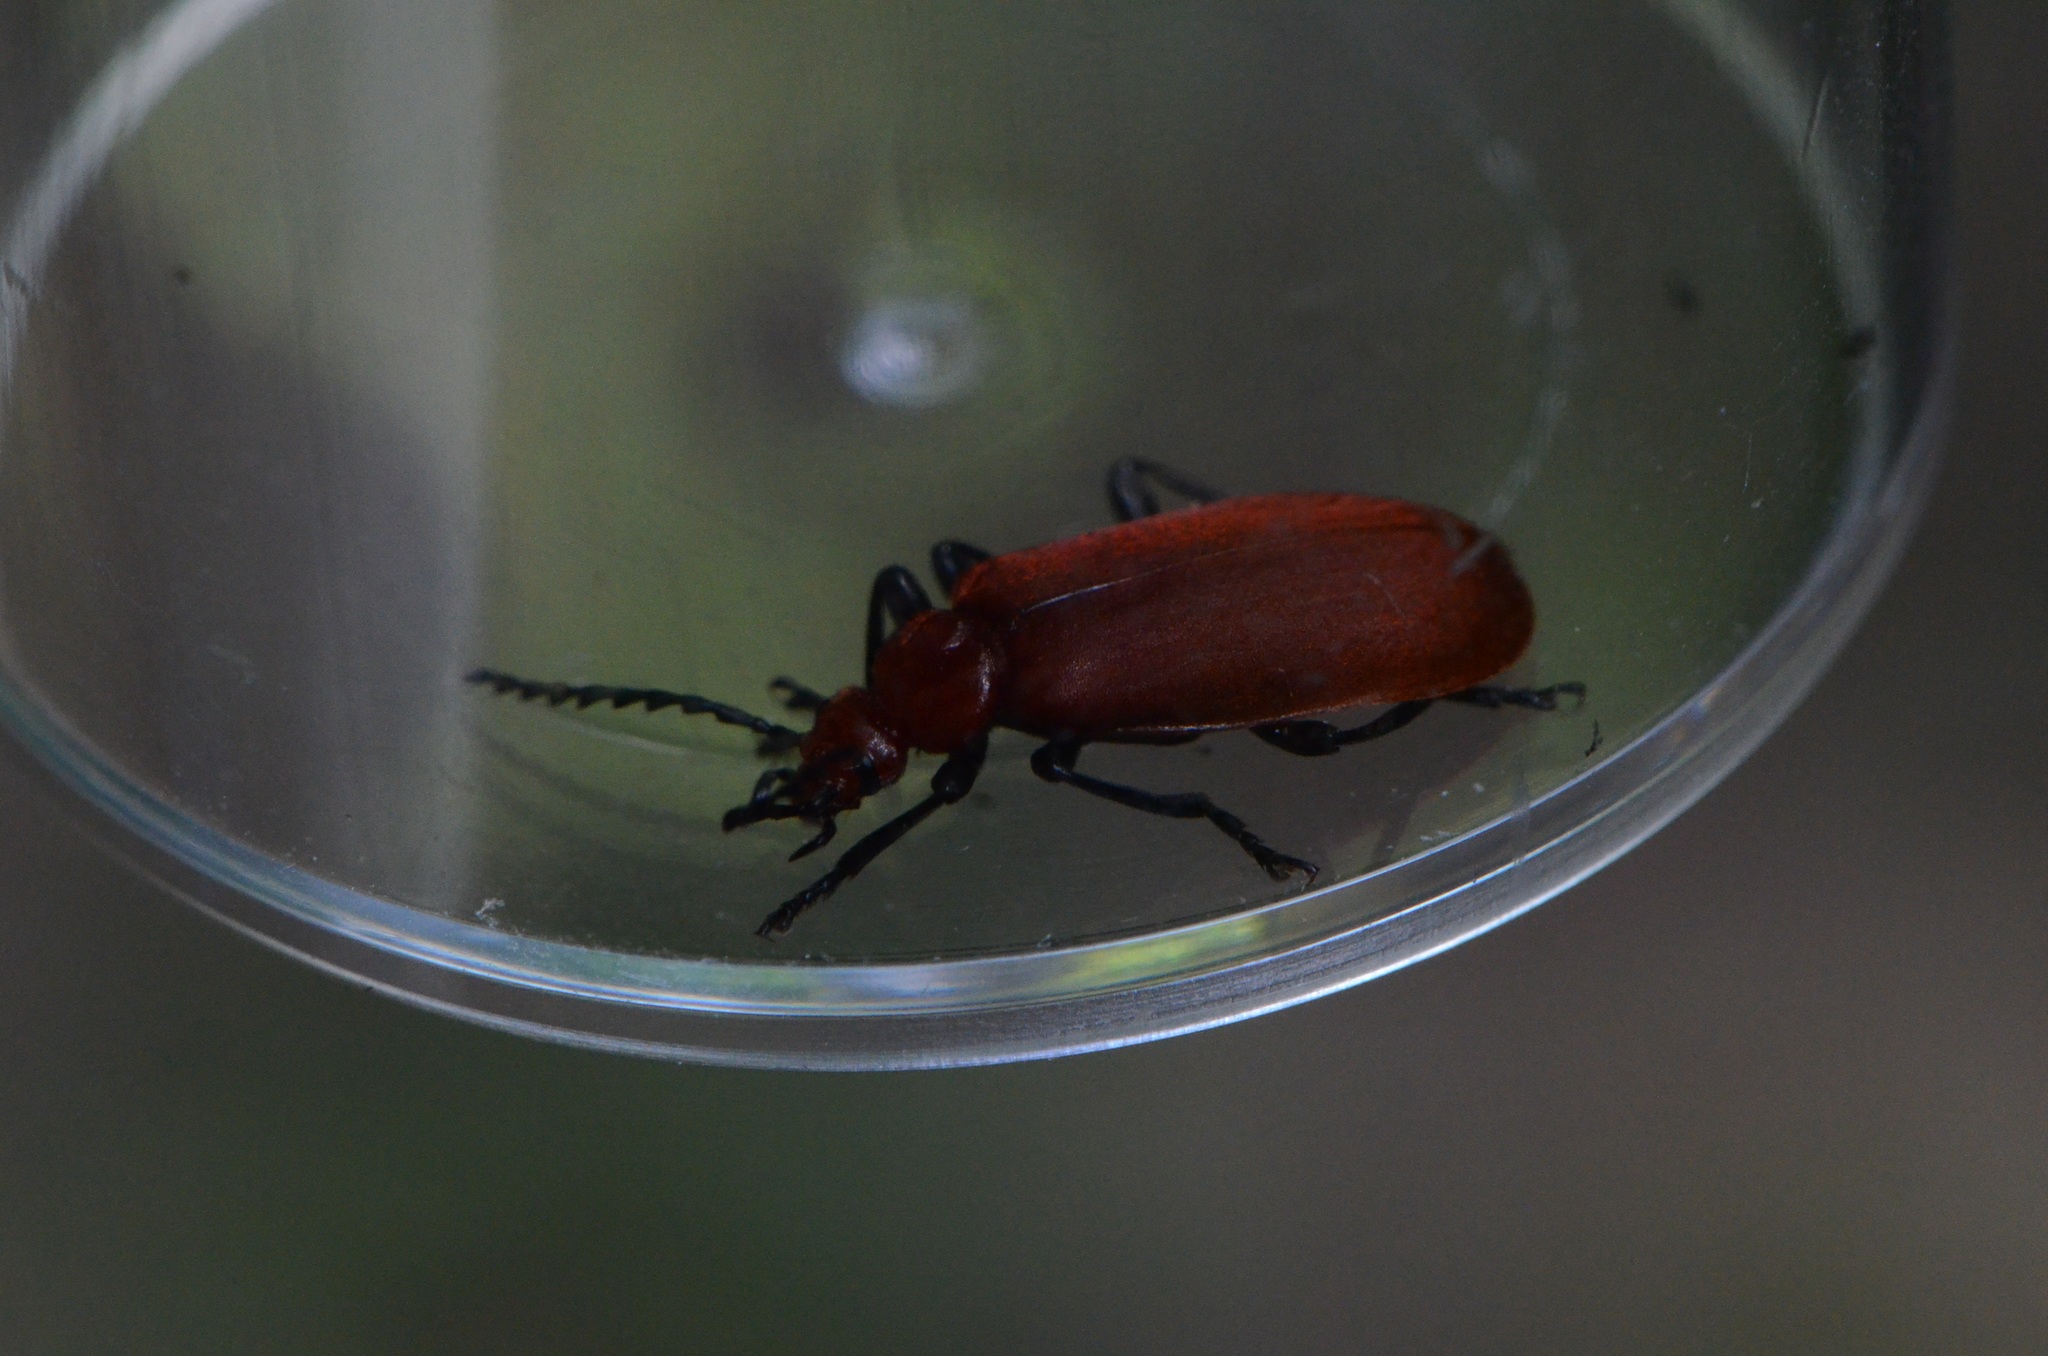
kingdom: Animalia
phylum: Arthropoda
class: Insecta
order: Coleoptera
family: Pyrochroidae
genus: Pyrochroa
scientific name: Pyrochroa serraticornis
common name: Red-headed cardinal beetle
